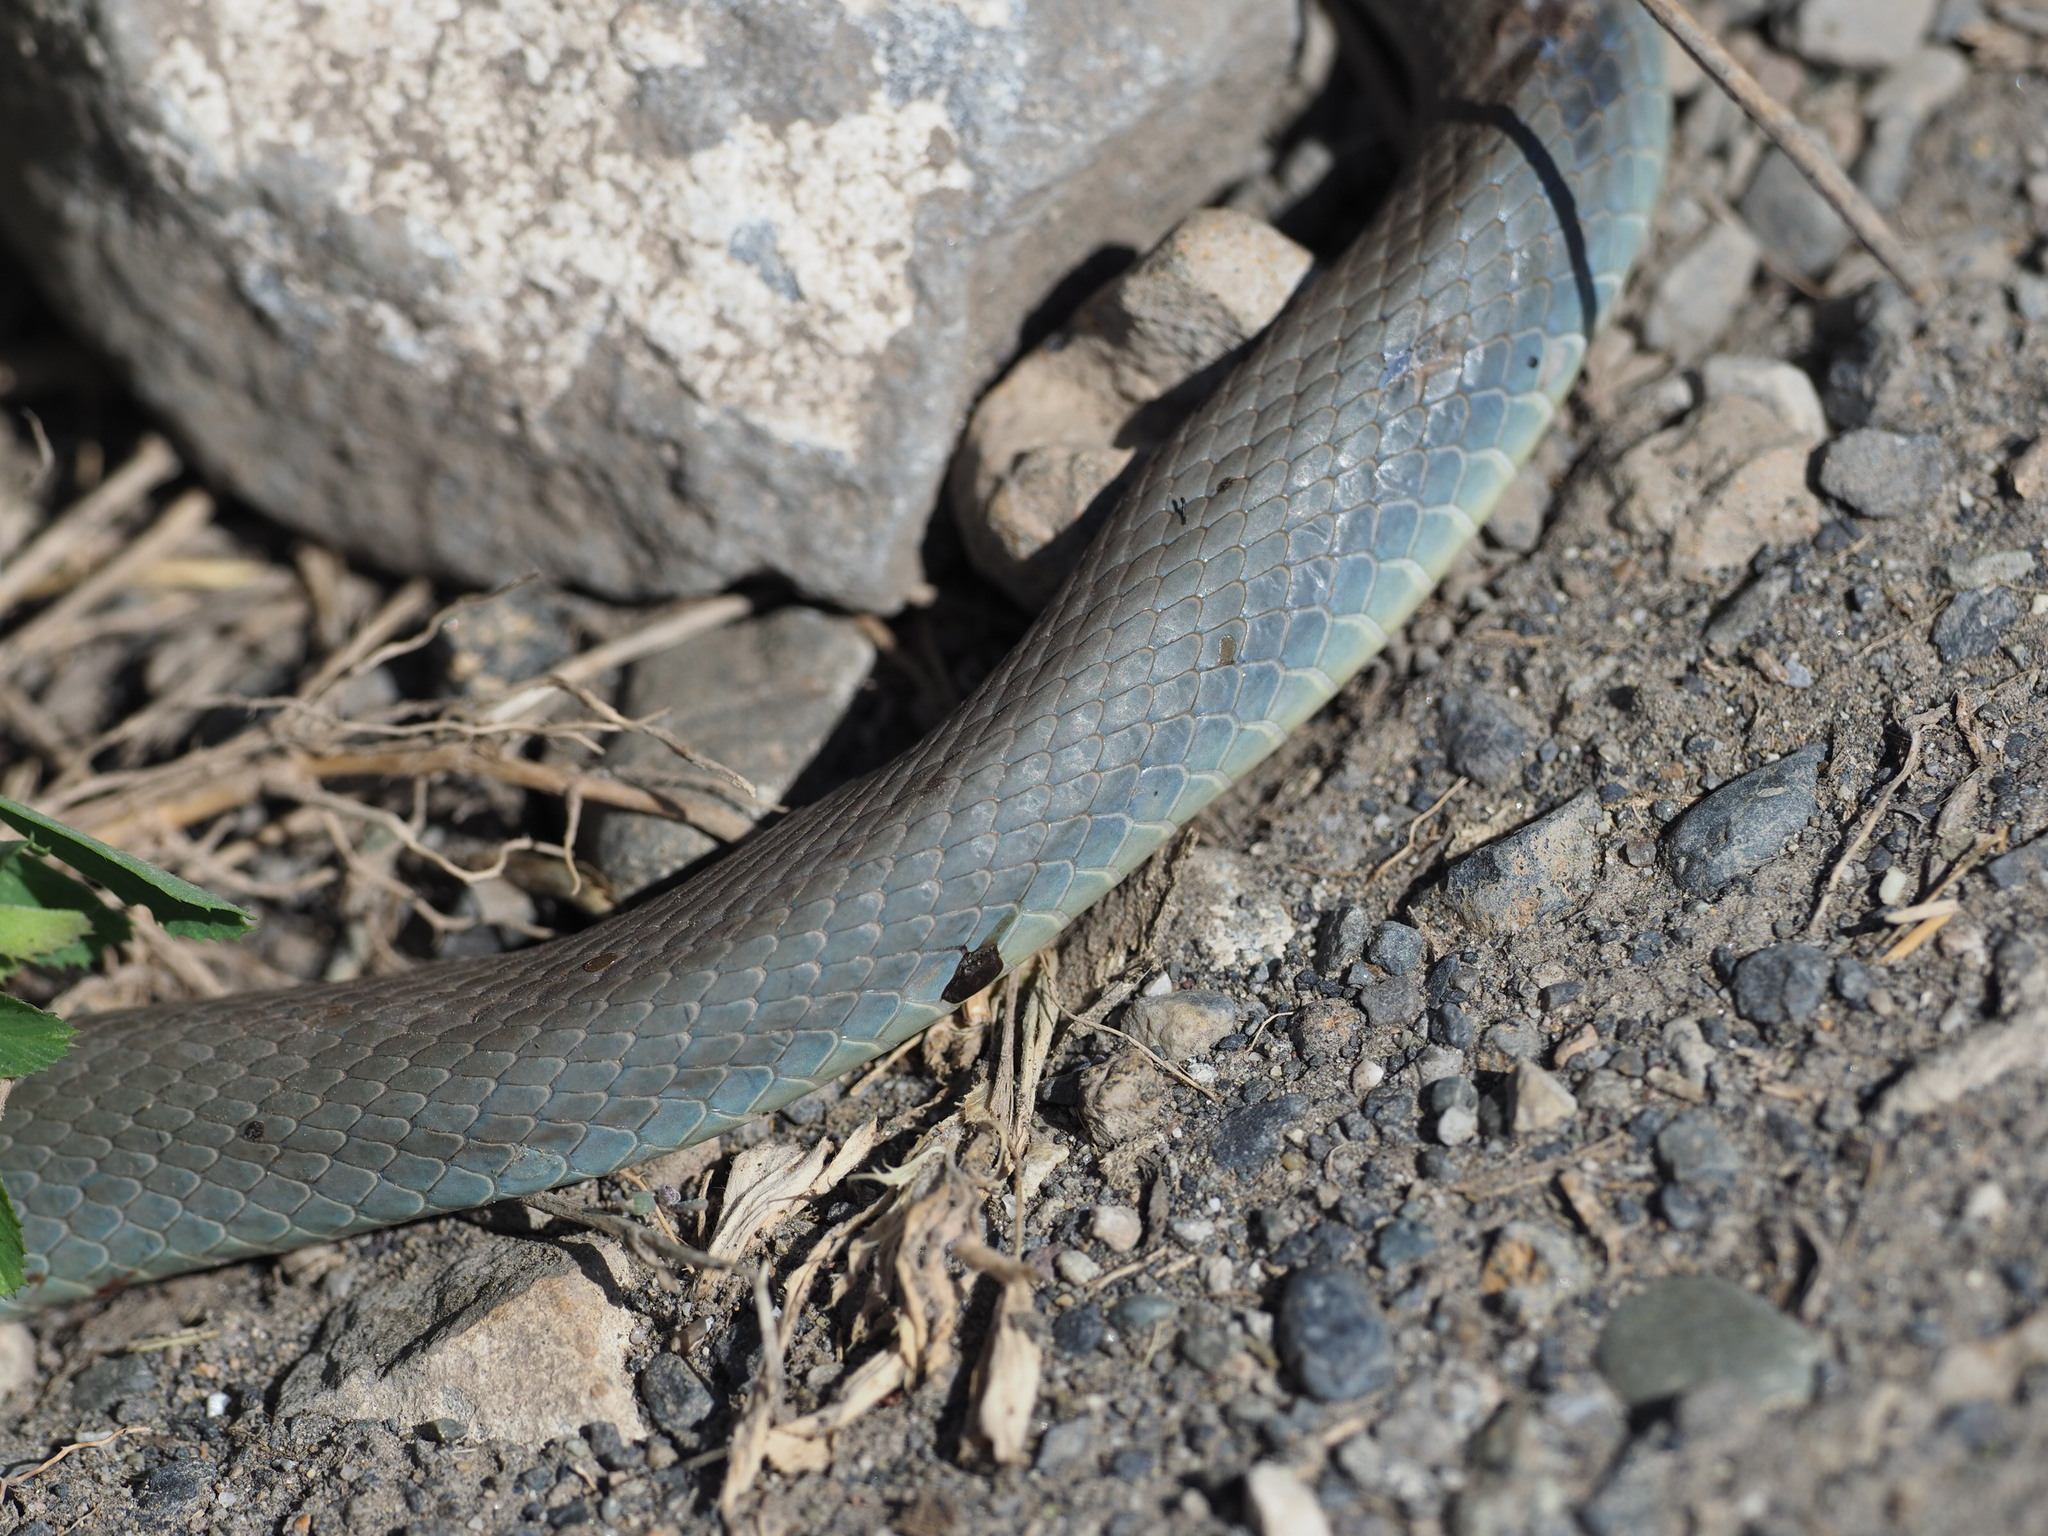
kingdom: Animalia
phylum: Chordata
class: Squamata
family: Colubridae
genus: Coluber
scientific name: Coluber constrictor
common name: Eastern racer
